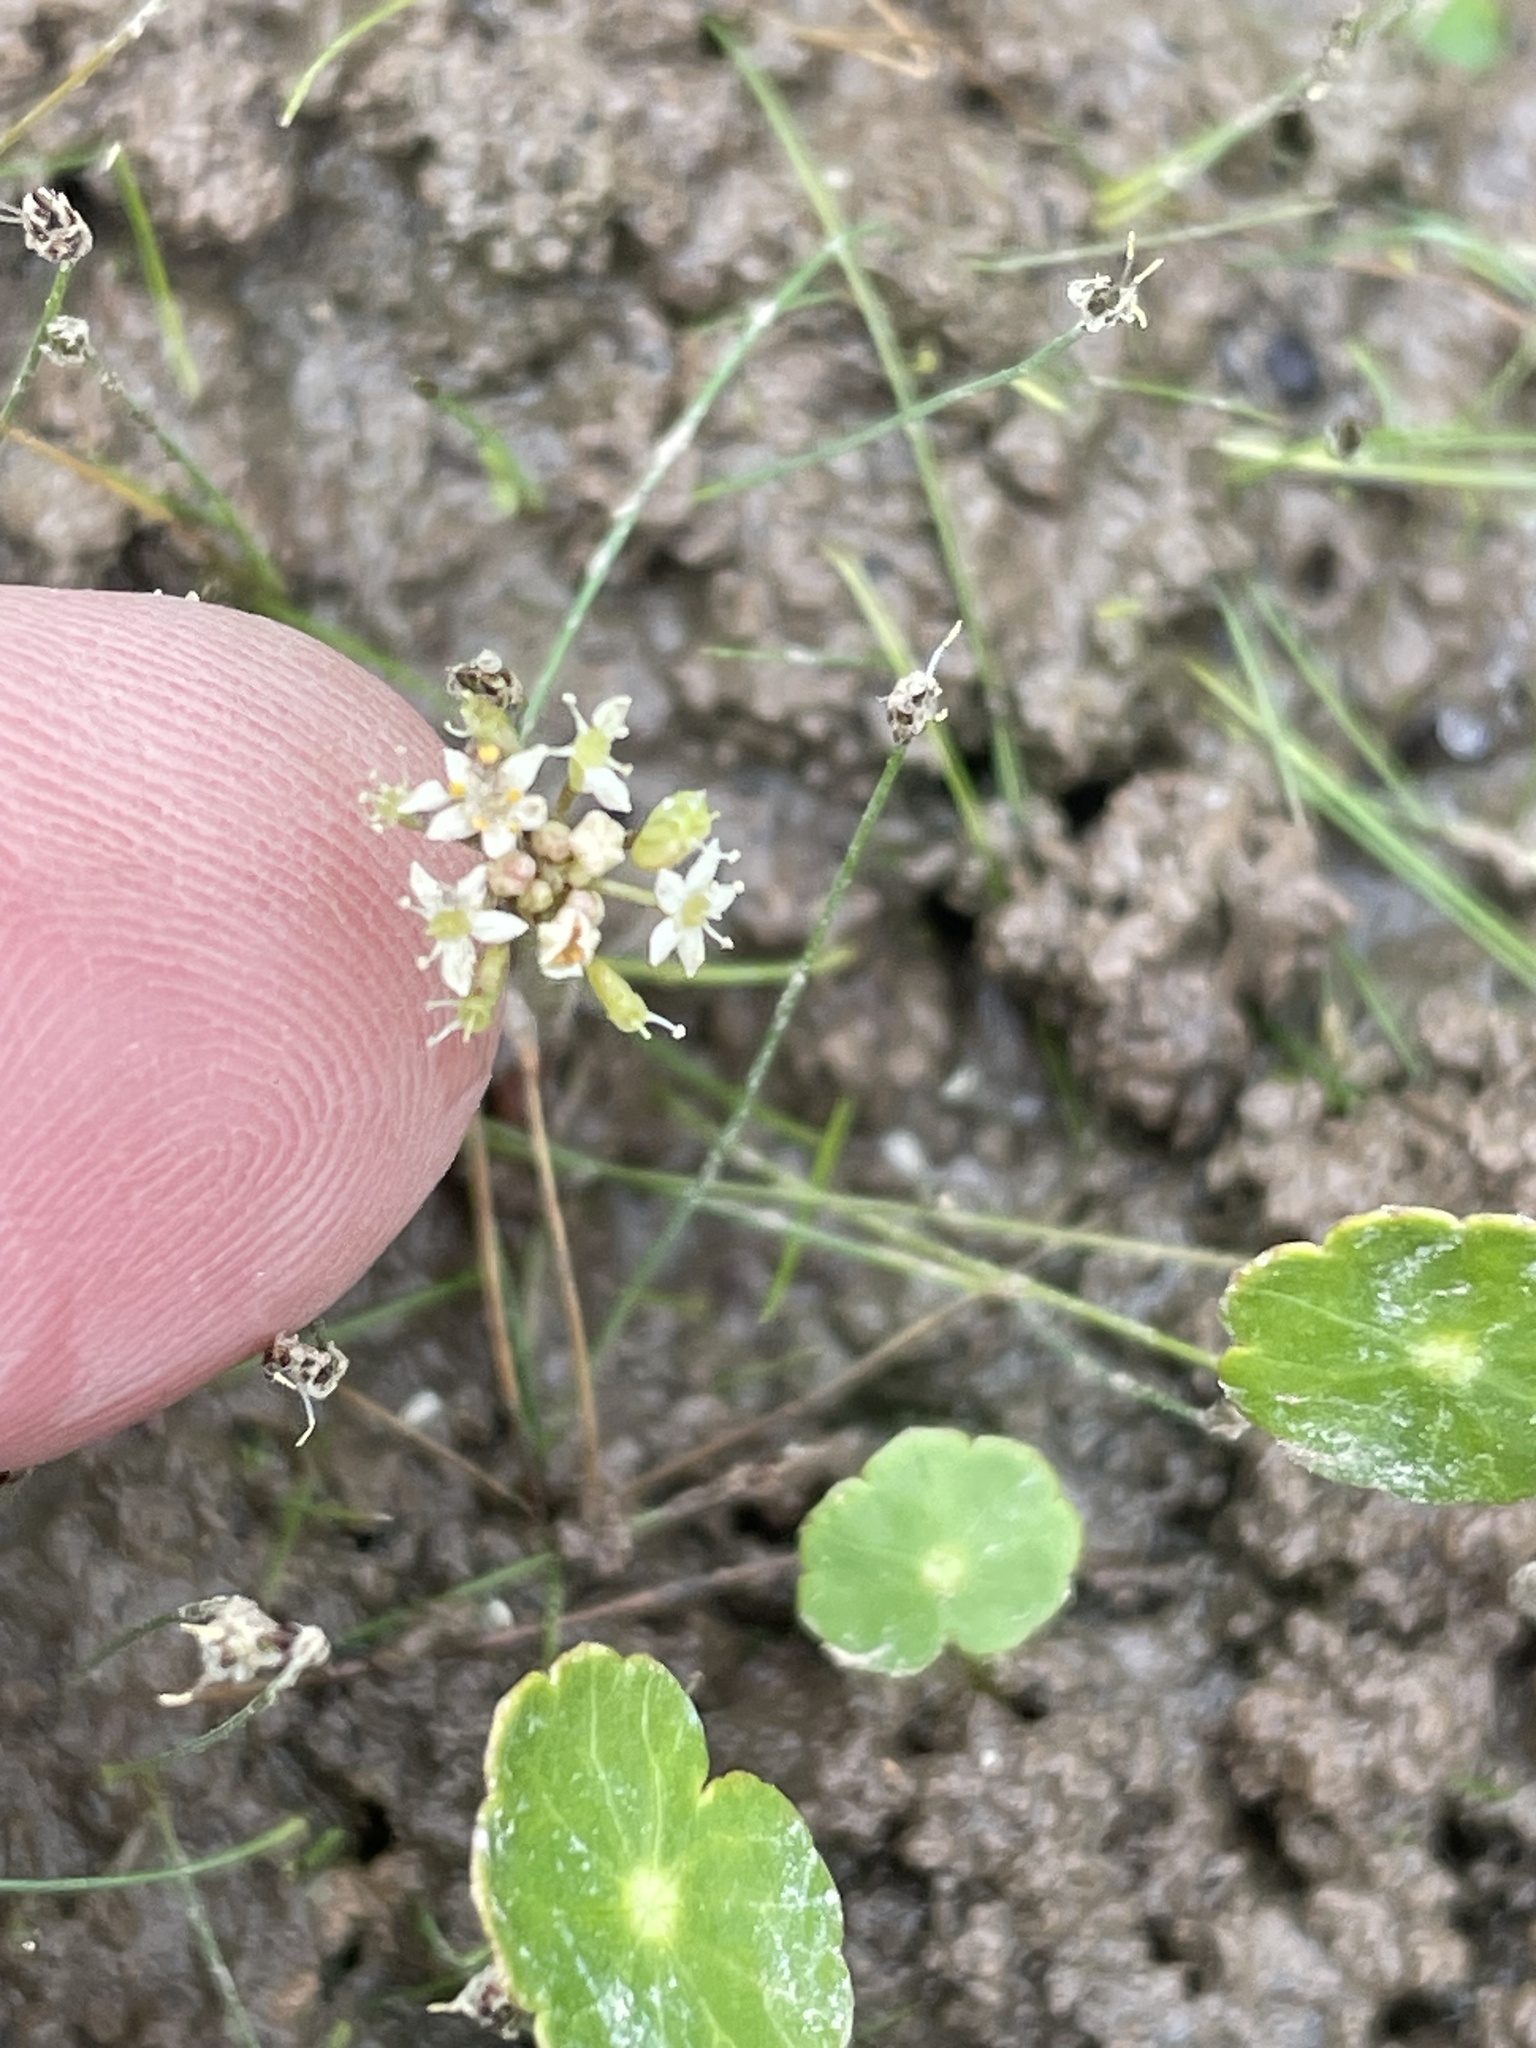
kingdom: Plantae
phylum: Tracheophyta
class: Magnoliopsida
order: Apiales
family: Araliaceae
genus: Hydrocotyle
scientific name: Hydrocotyle umbellata
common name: Water pennywort
